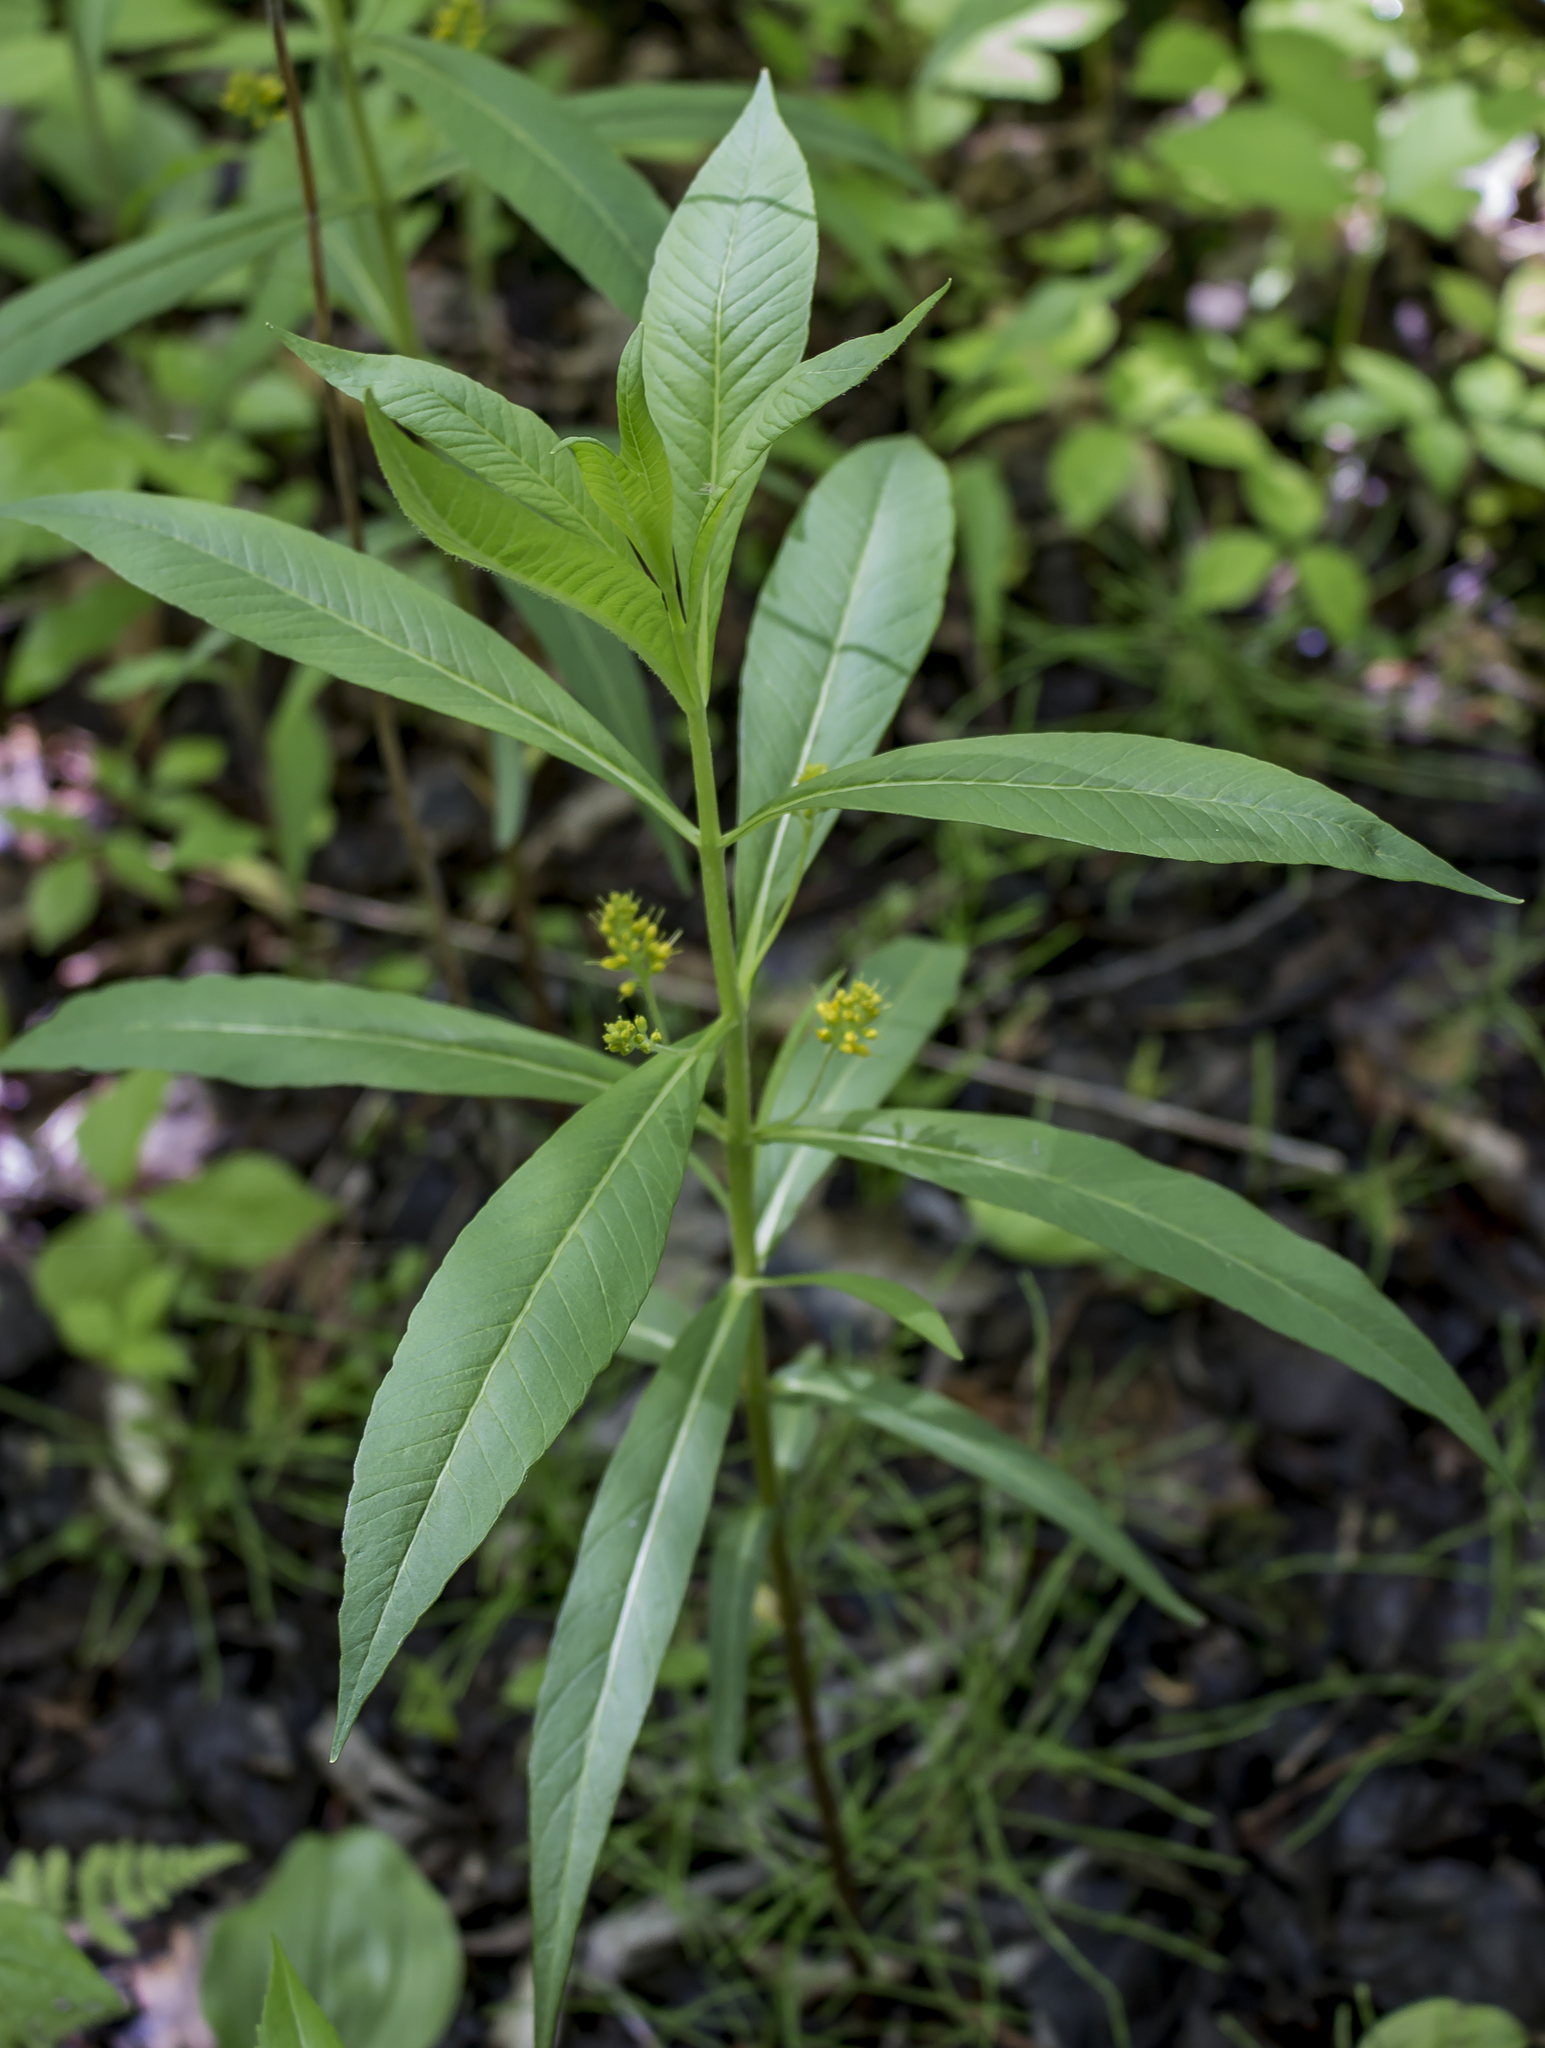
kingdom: Plantae
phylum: Tracheophyta
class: Magnoliopsida
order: Ericales
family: Primulaceae
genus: Lysimachia
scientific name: Lysimachia thyrsiflora
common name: Tufted loosestrife
